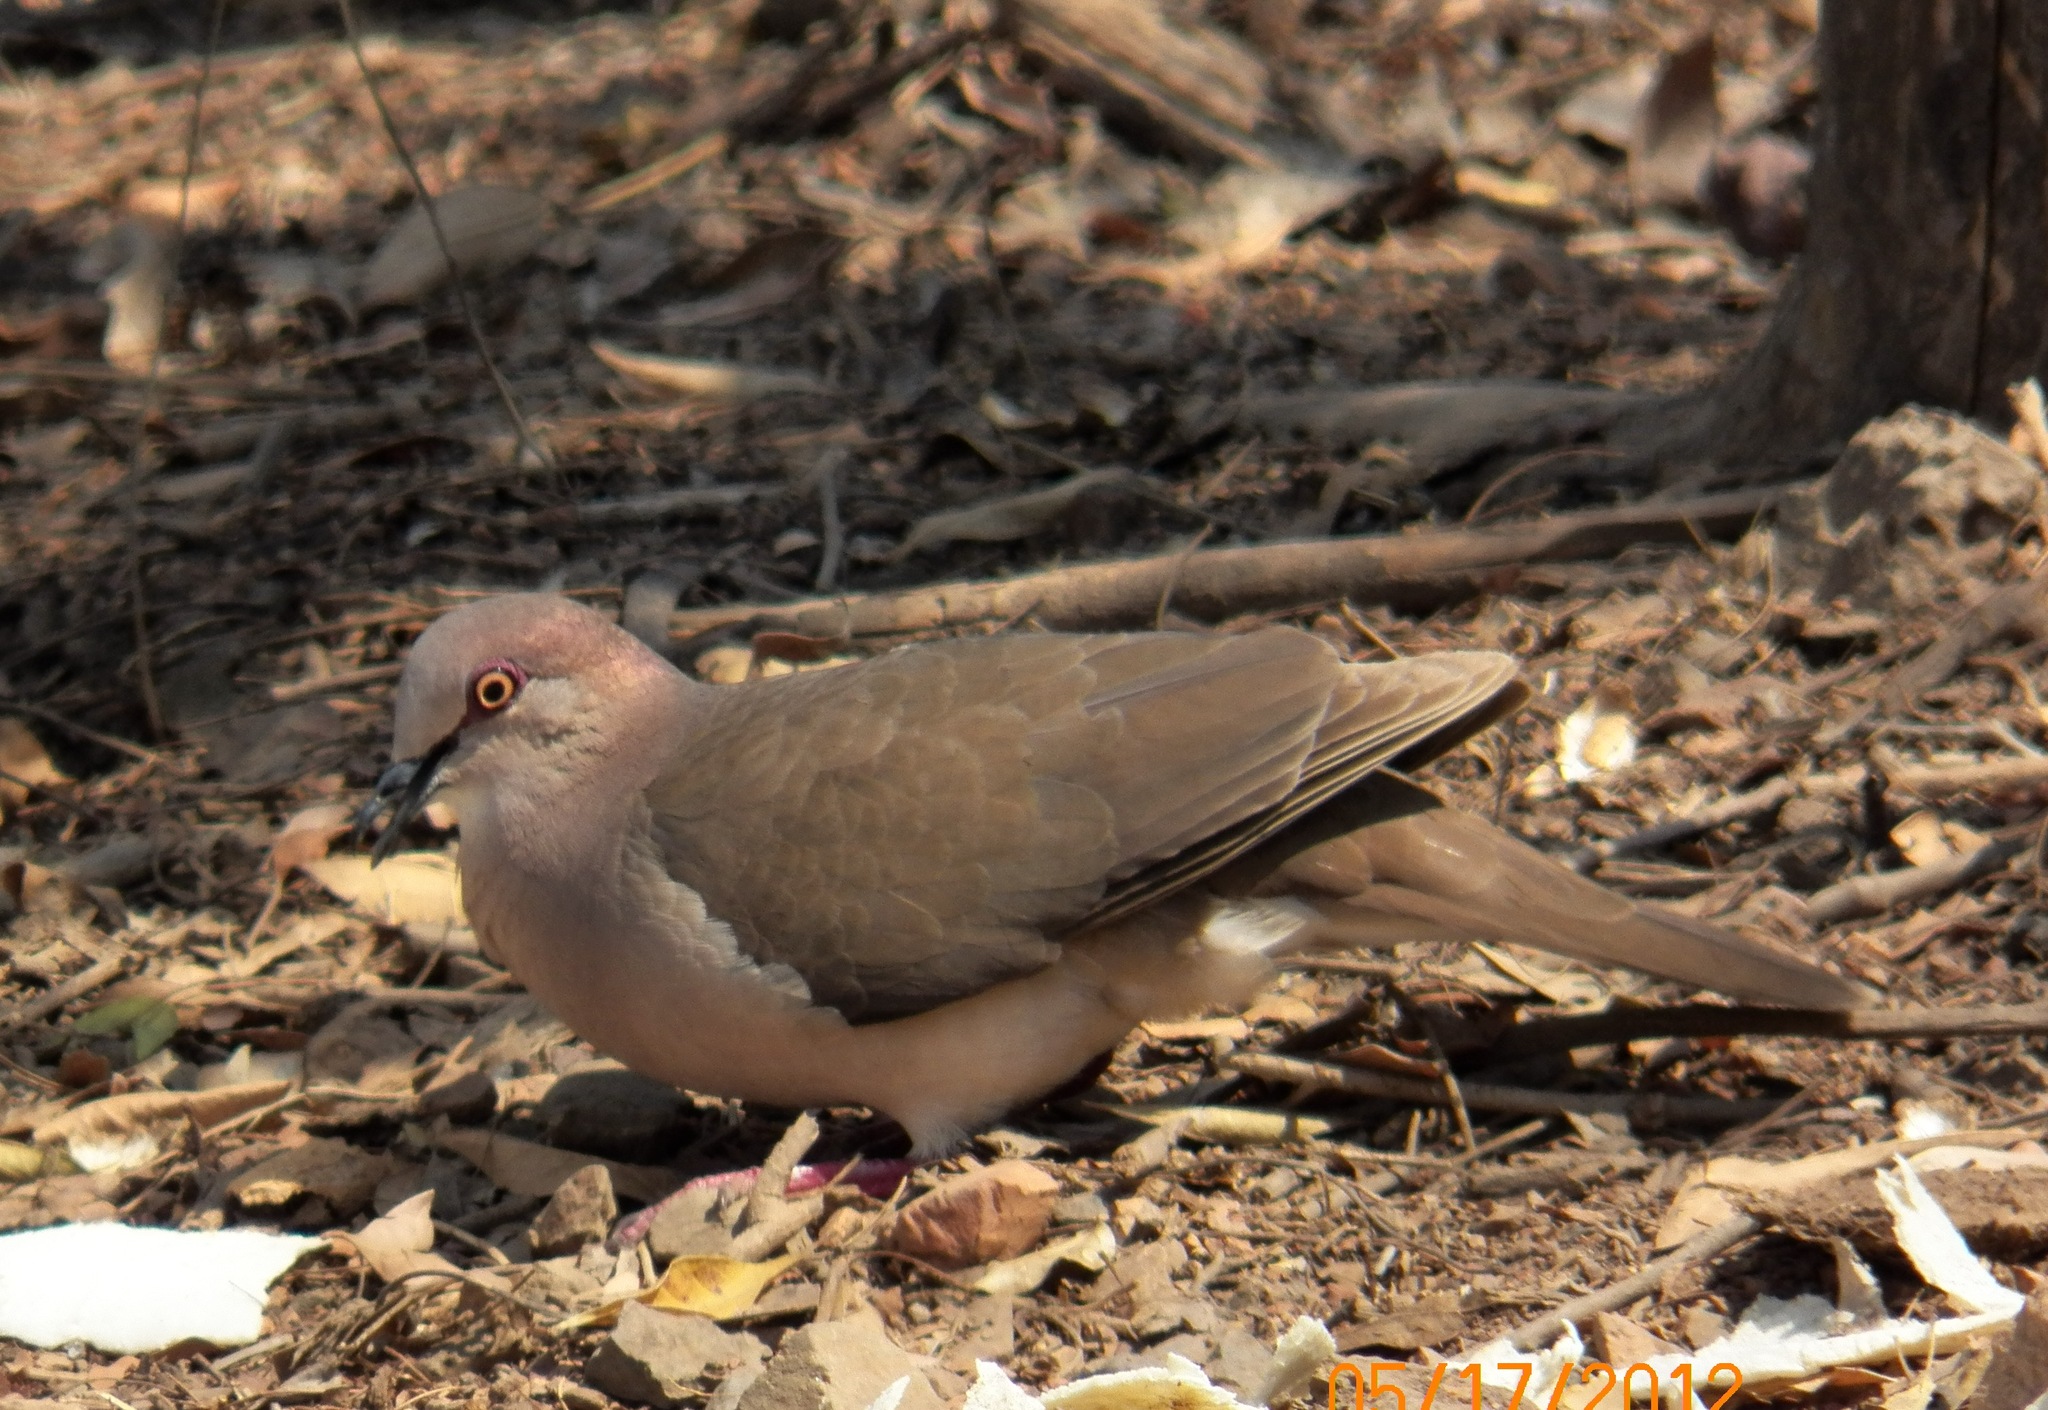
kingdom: Animalia
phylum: Chordata
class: Aves
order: Columbiformes
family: Columbidae
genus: Leptotila
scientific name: Leptotila verreauxi
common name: White-tipped dove
